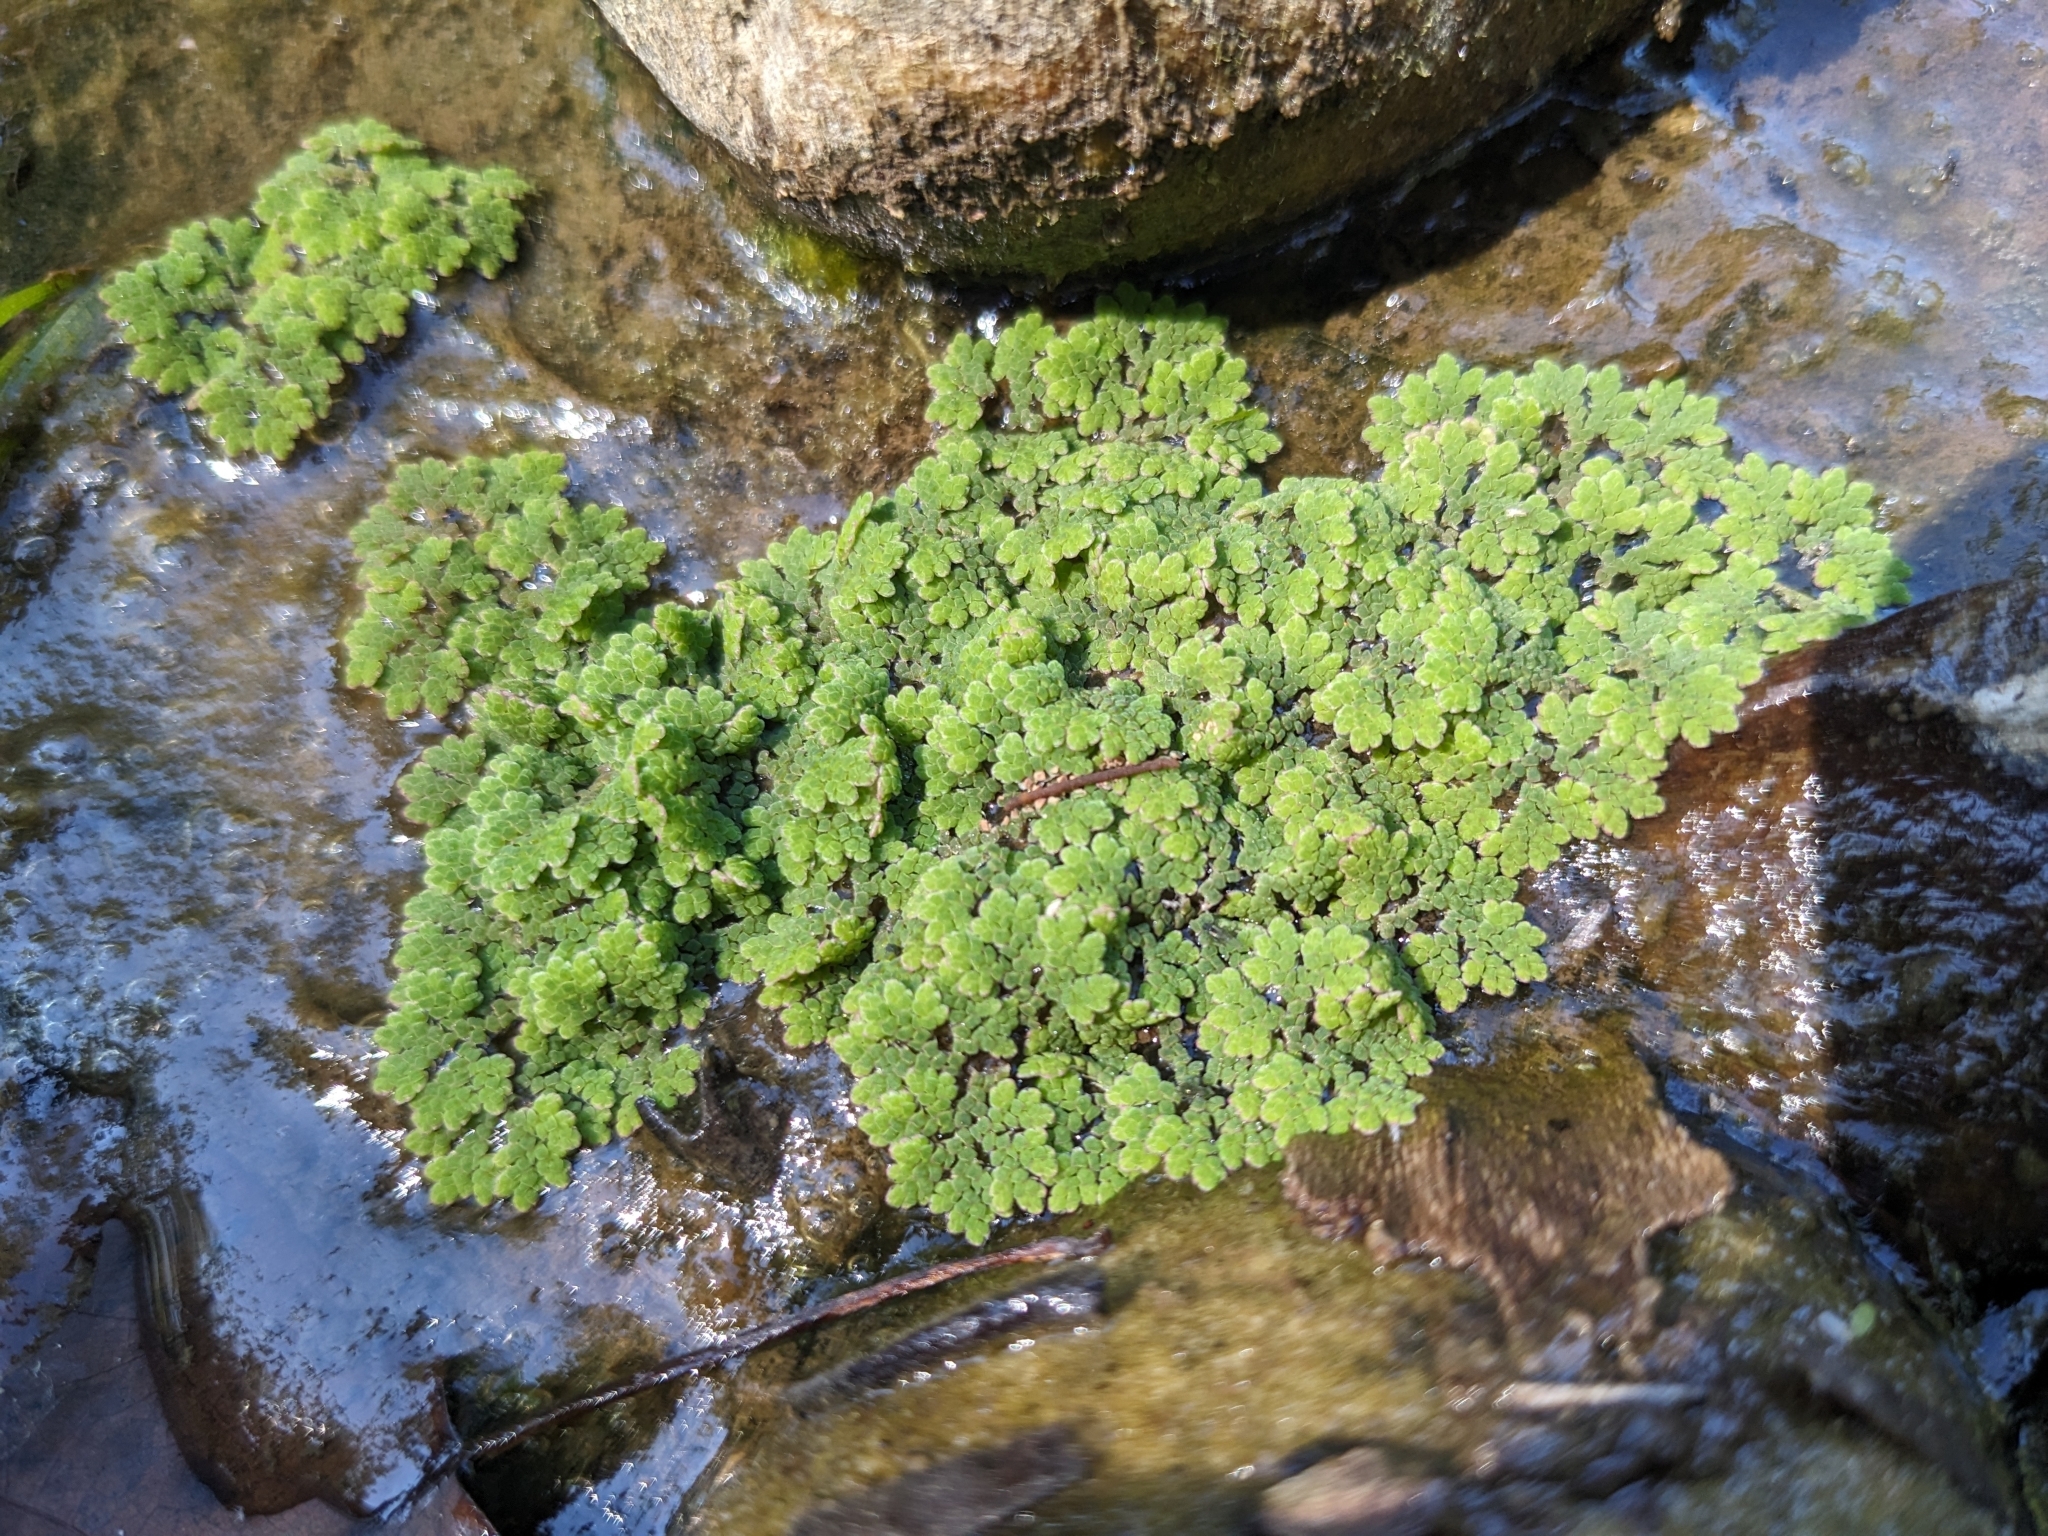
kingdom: Plantae
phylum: Tracheophyta
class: Polypodiopsida
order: Salviniales
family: Salviniaceae
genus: Azolla
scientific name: Azolla caroliniana
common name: Carolina mosquitofern
